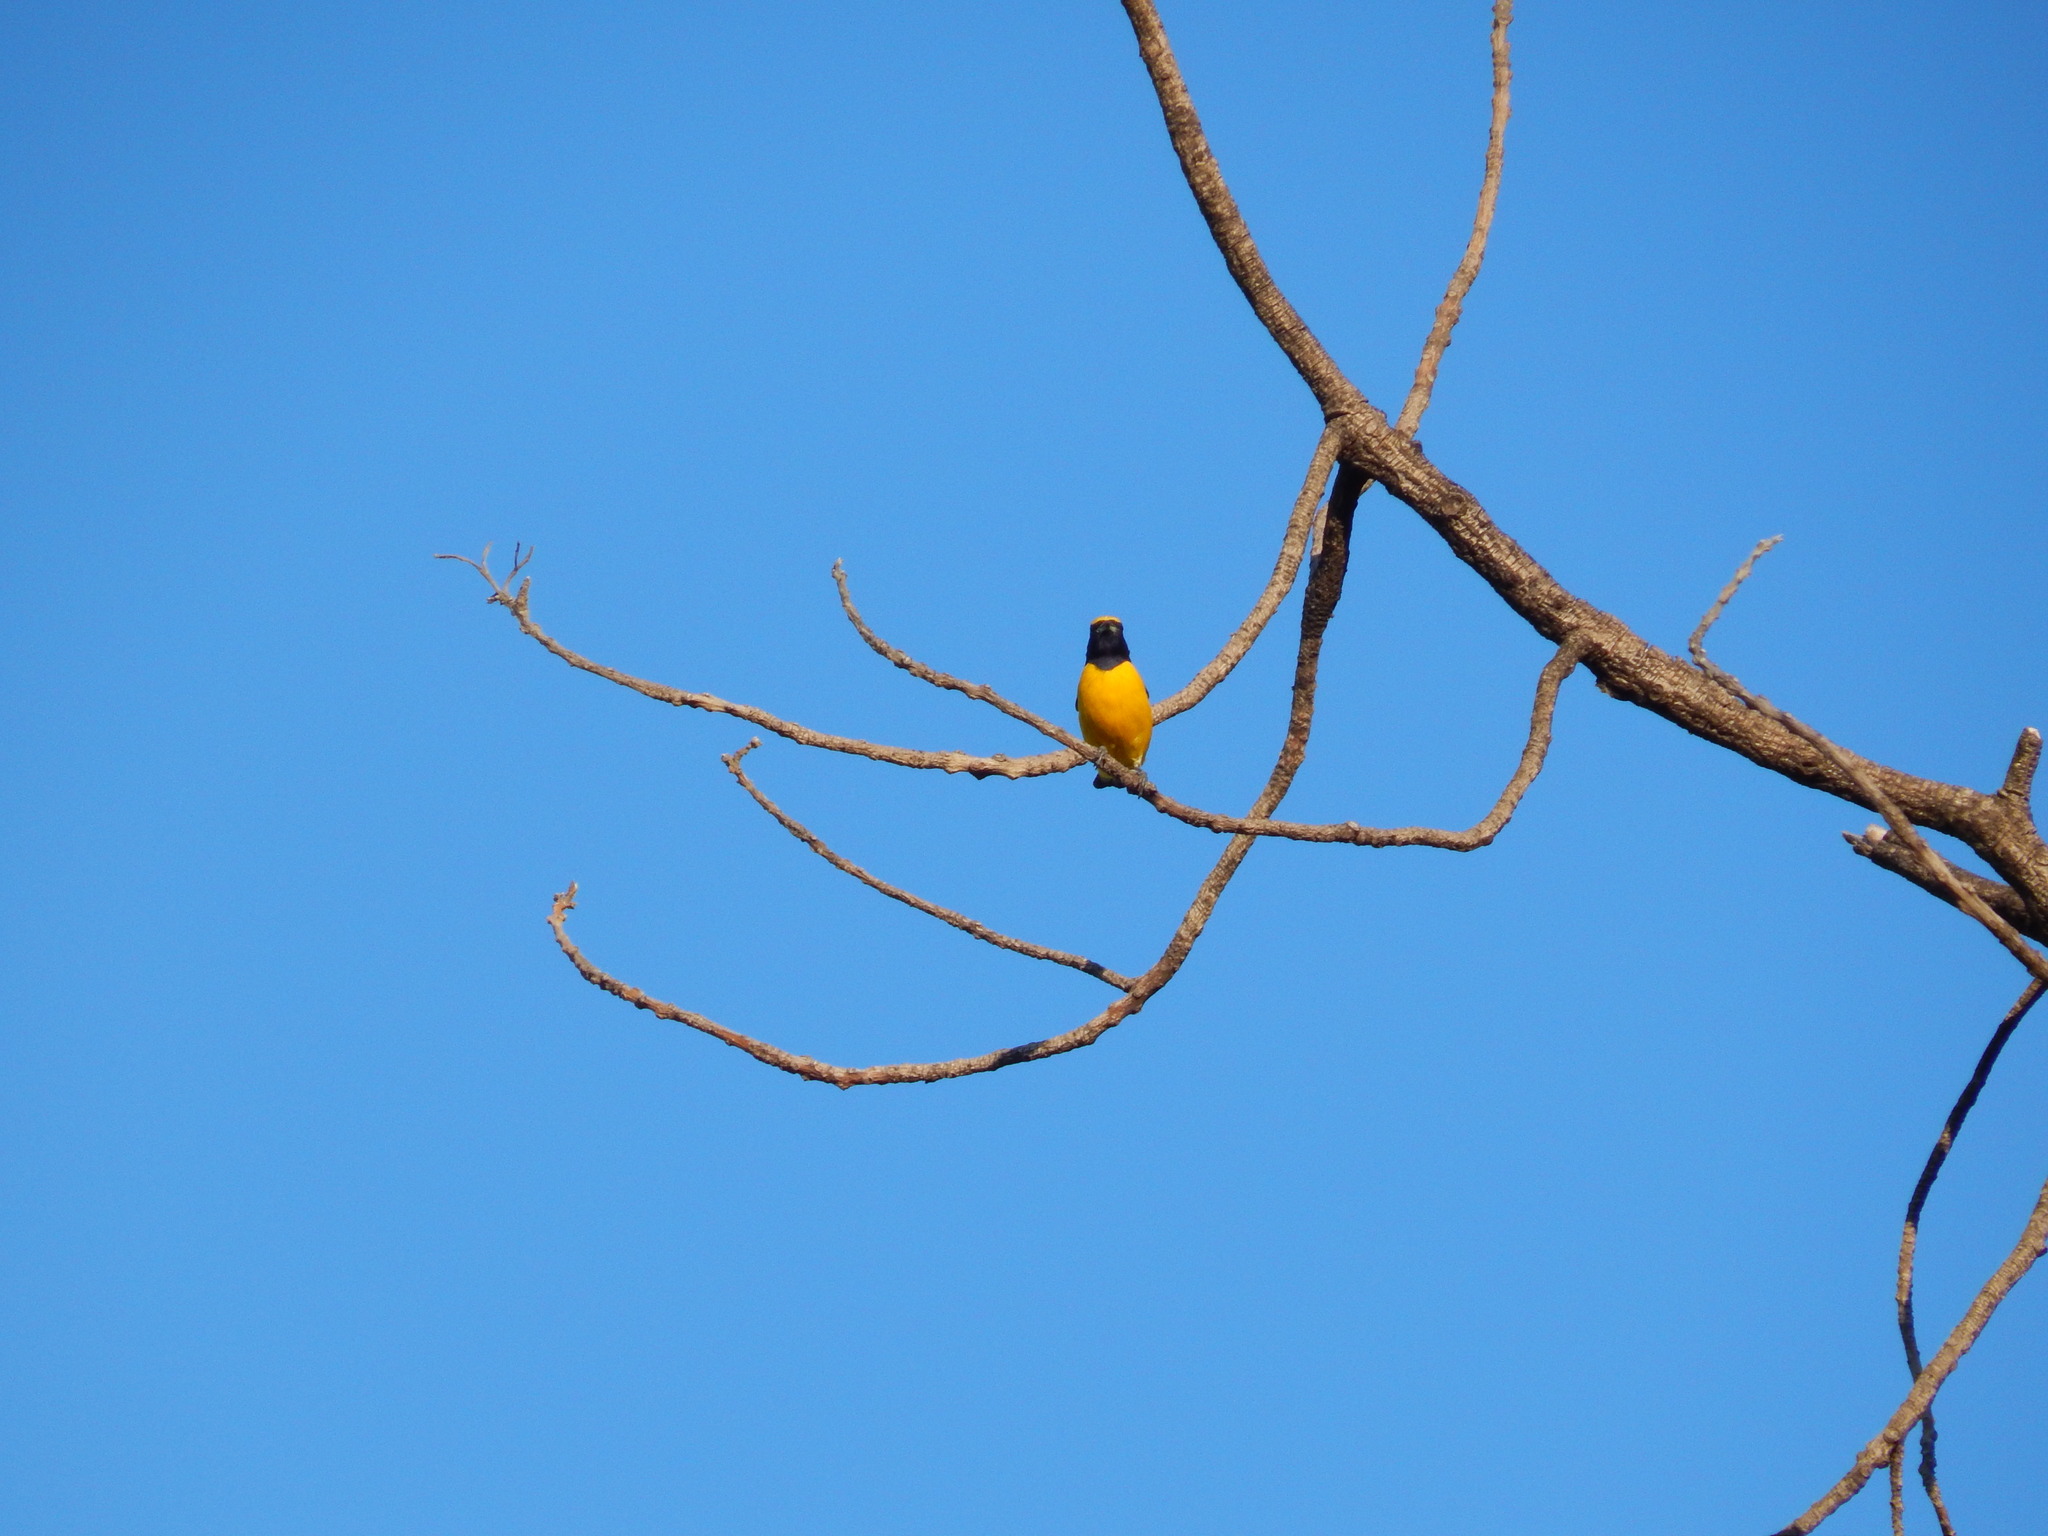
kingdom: Animalia
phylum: Chordata
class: Aves
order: Passeriformes
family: Fringillidae
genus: Euphonia
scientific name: Euphonia affinis
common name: Scrub euphonia
